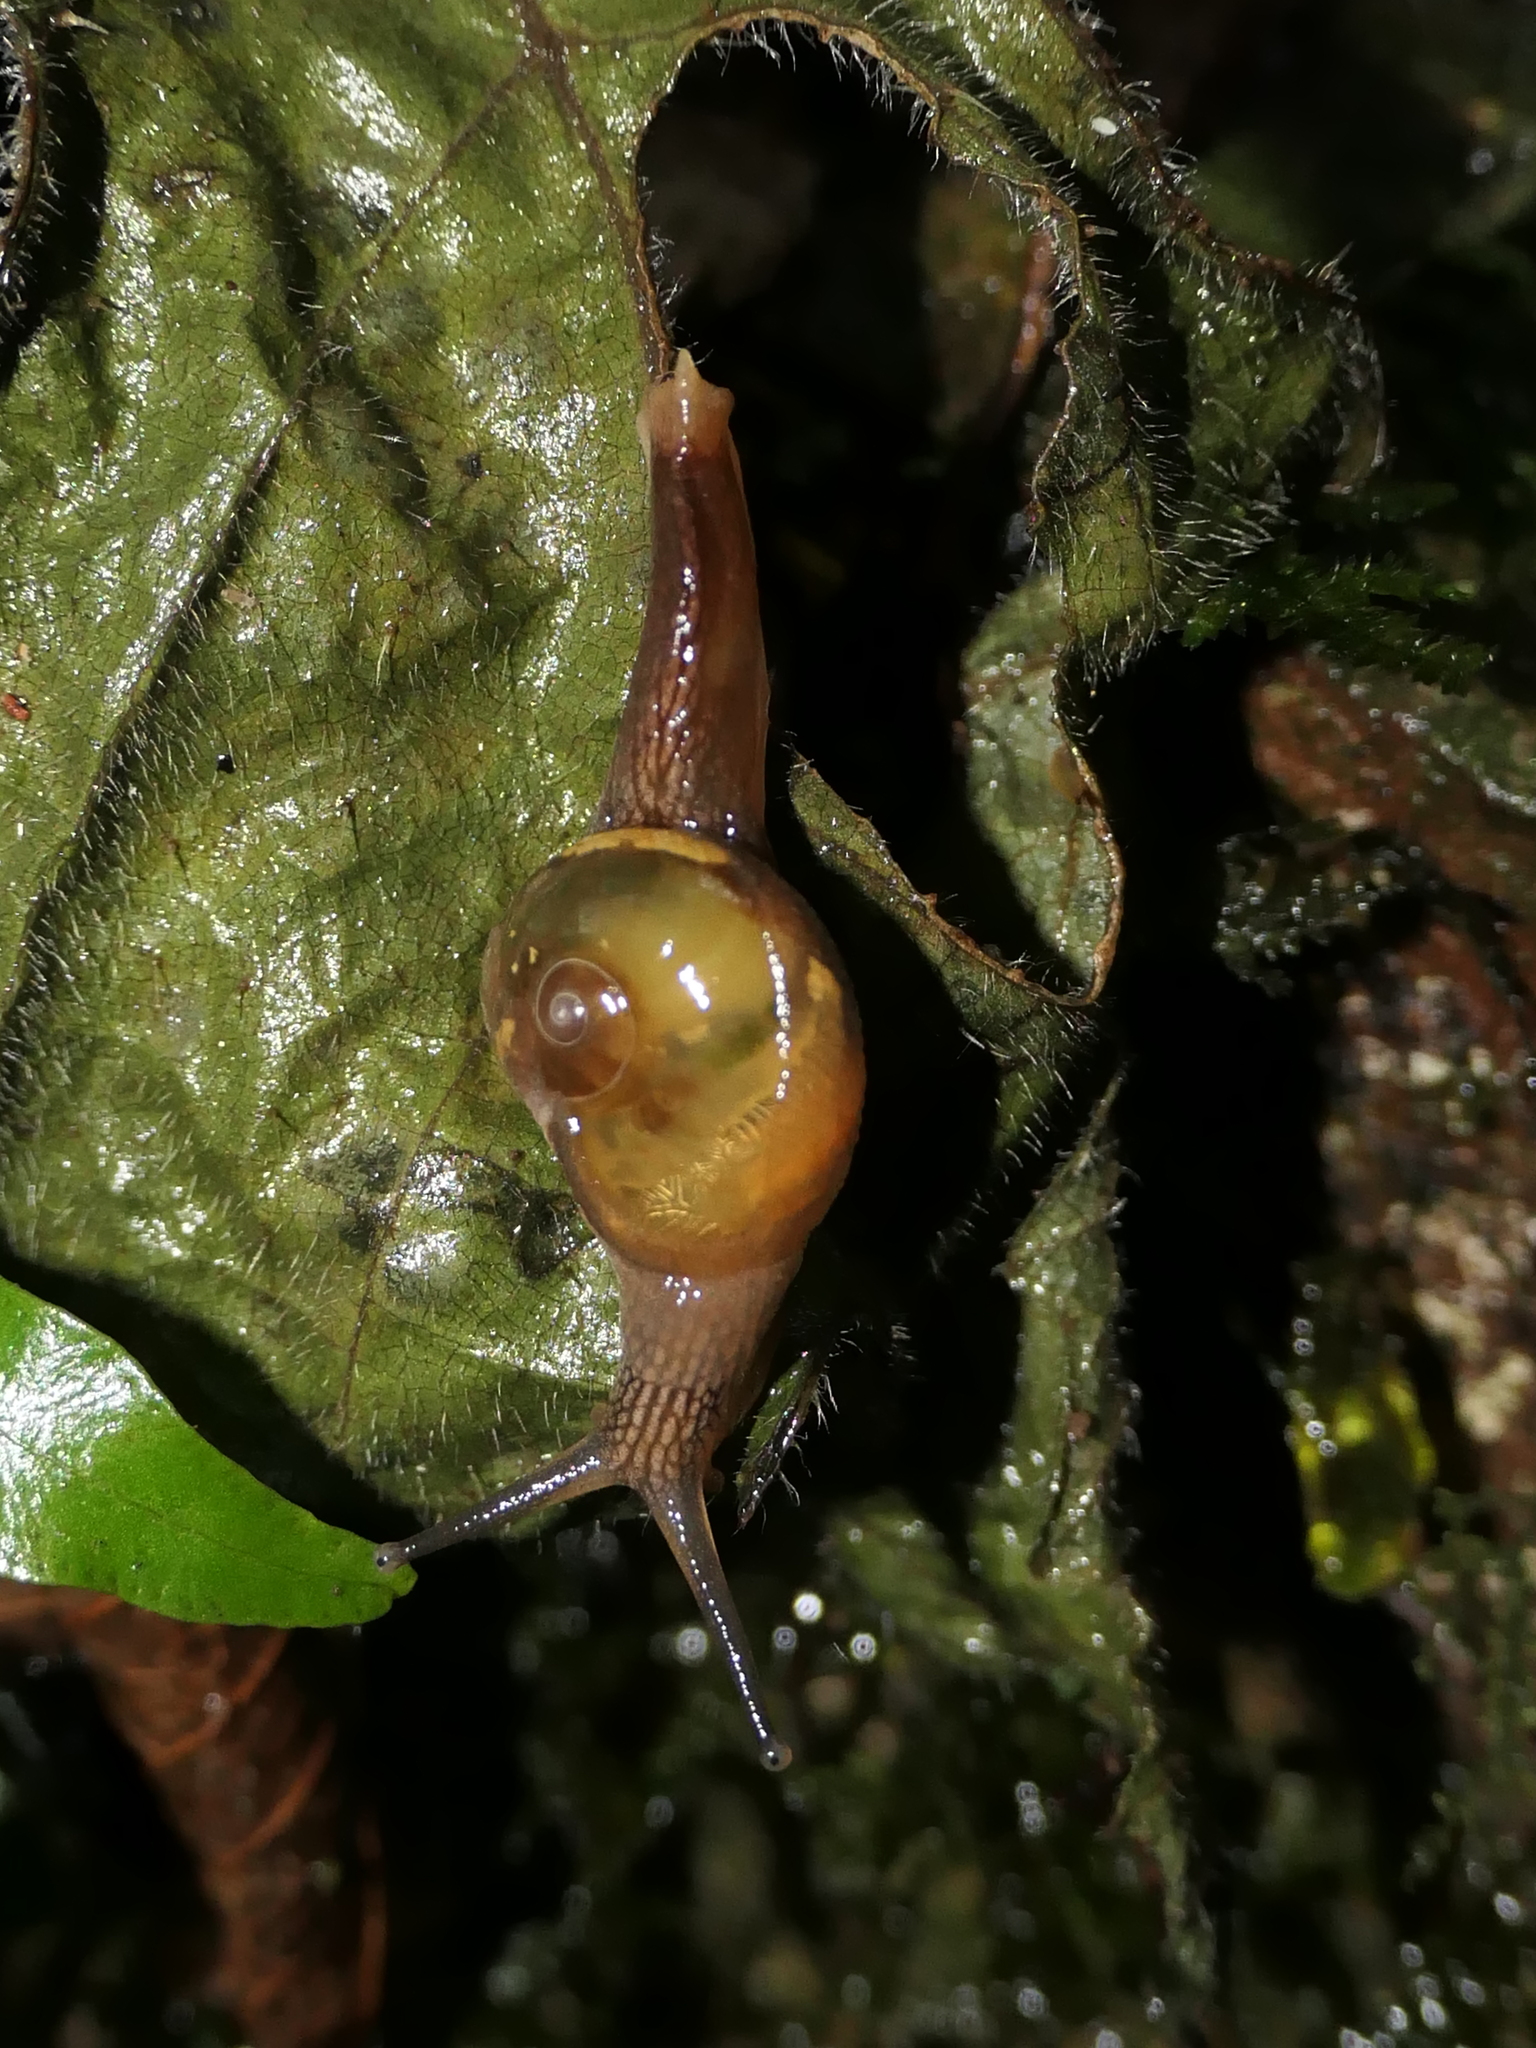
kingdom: Animalia
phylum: Mollusca
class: Gastropoda
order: Stylommatophora
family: Helicarionidae
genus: Helicarion
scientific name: Helicarion mastersi
